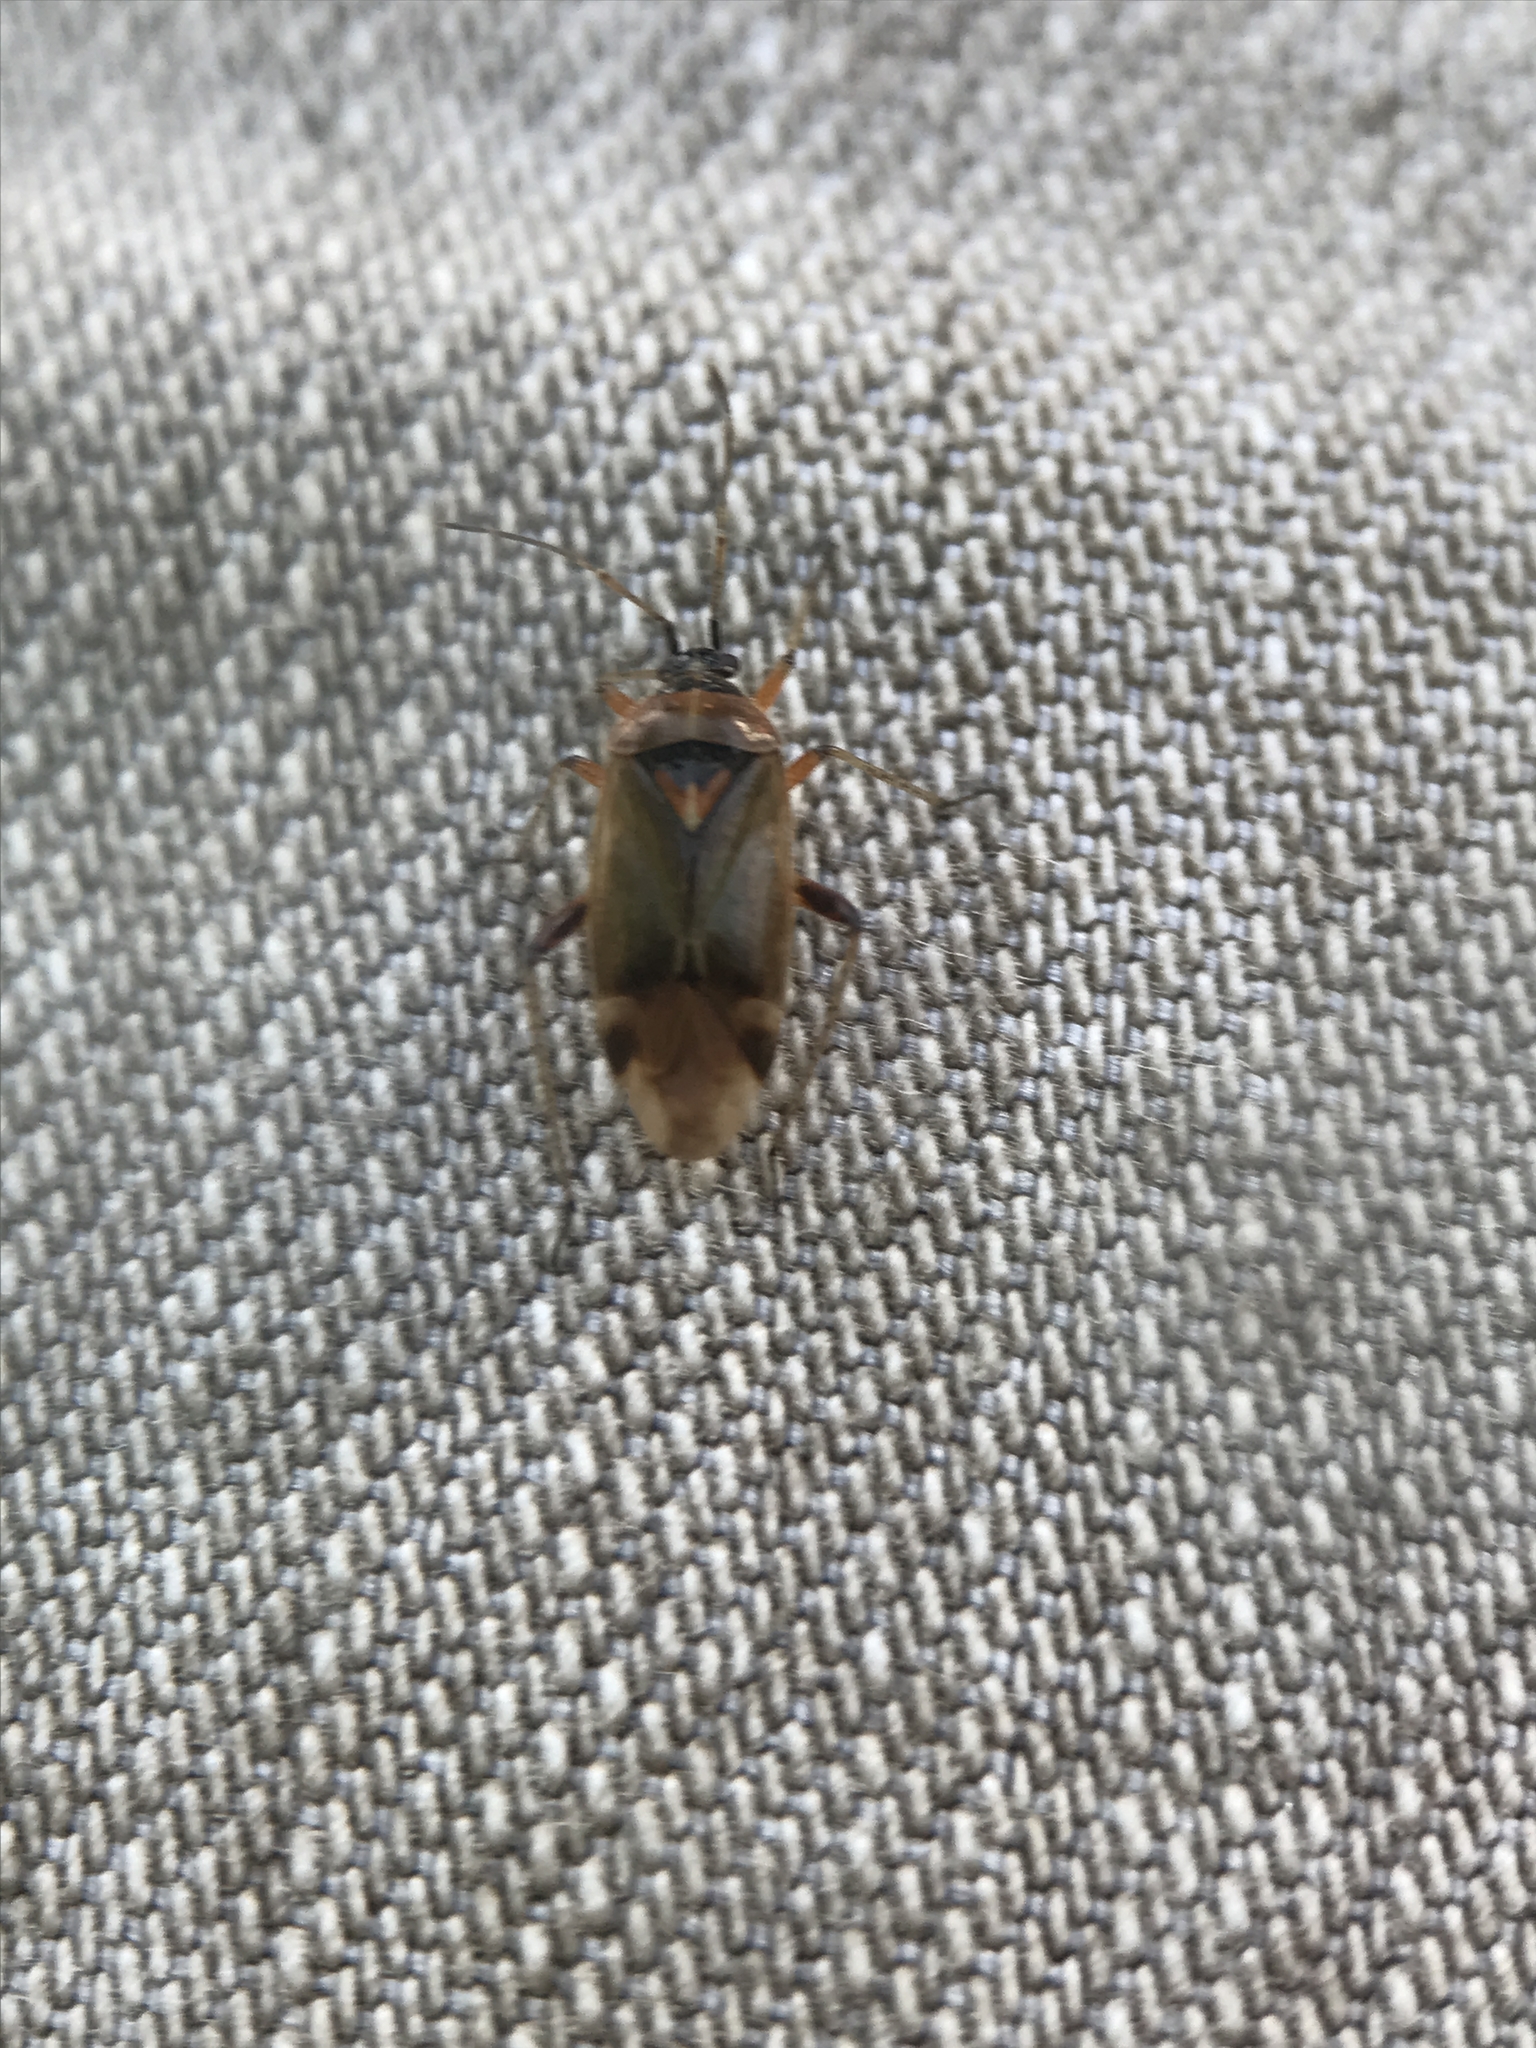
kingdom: Animalia
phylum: Arthropoda
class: Insecta
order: Hemiptera
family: Miridae
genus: Harpocera
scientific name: Harpocera thoracica
